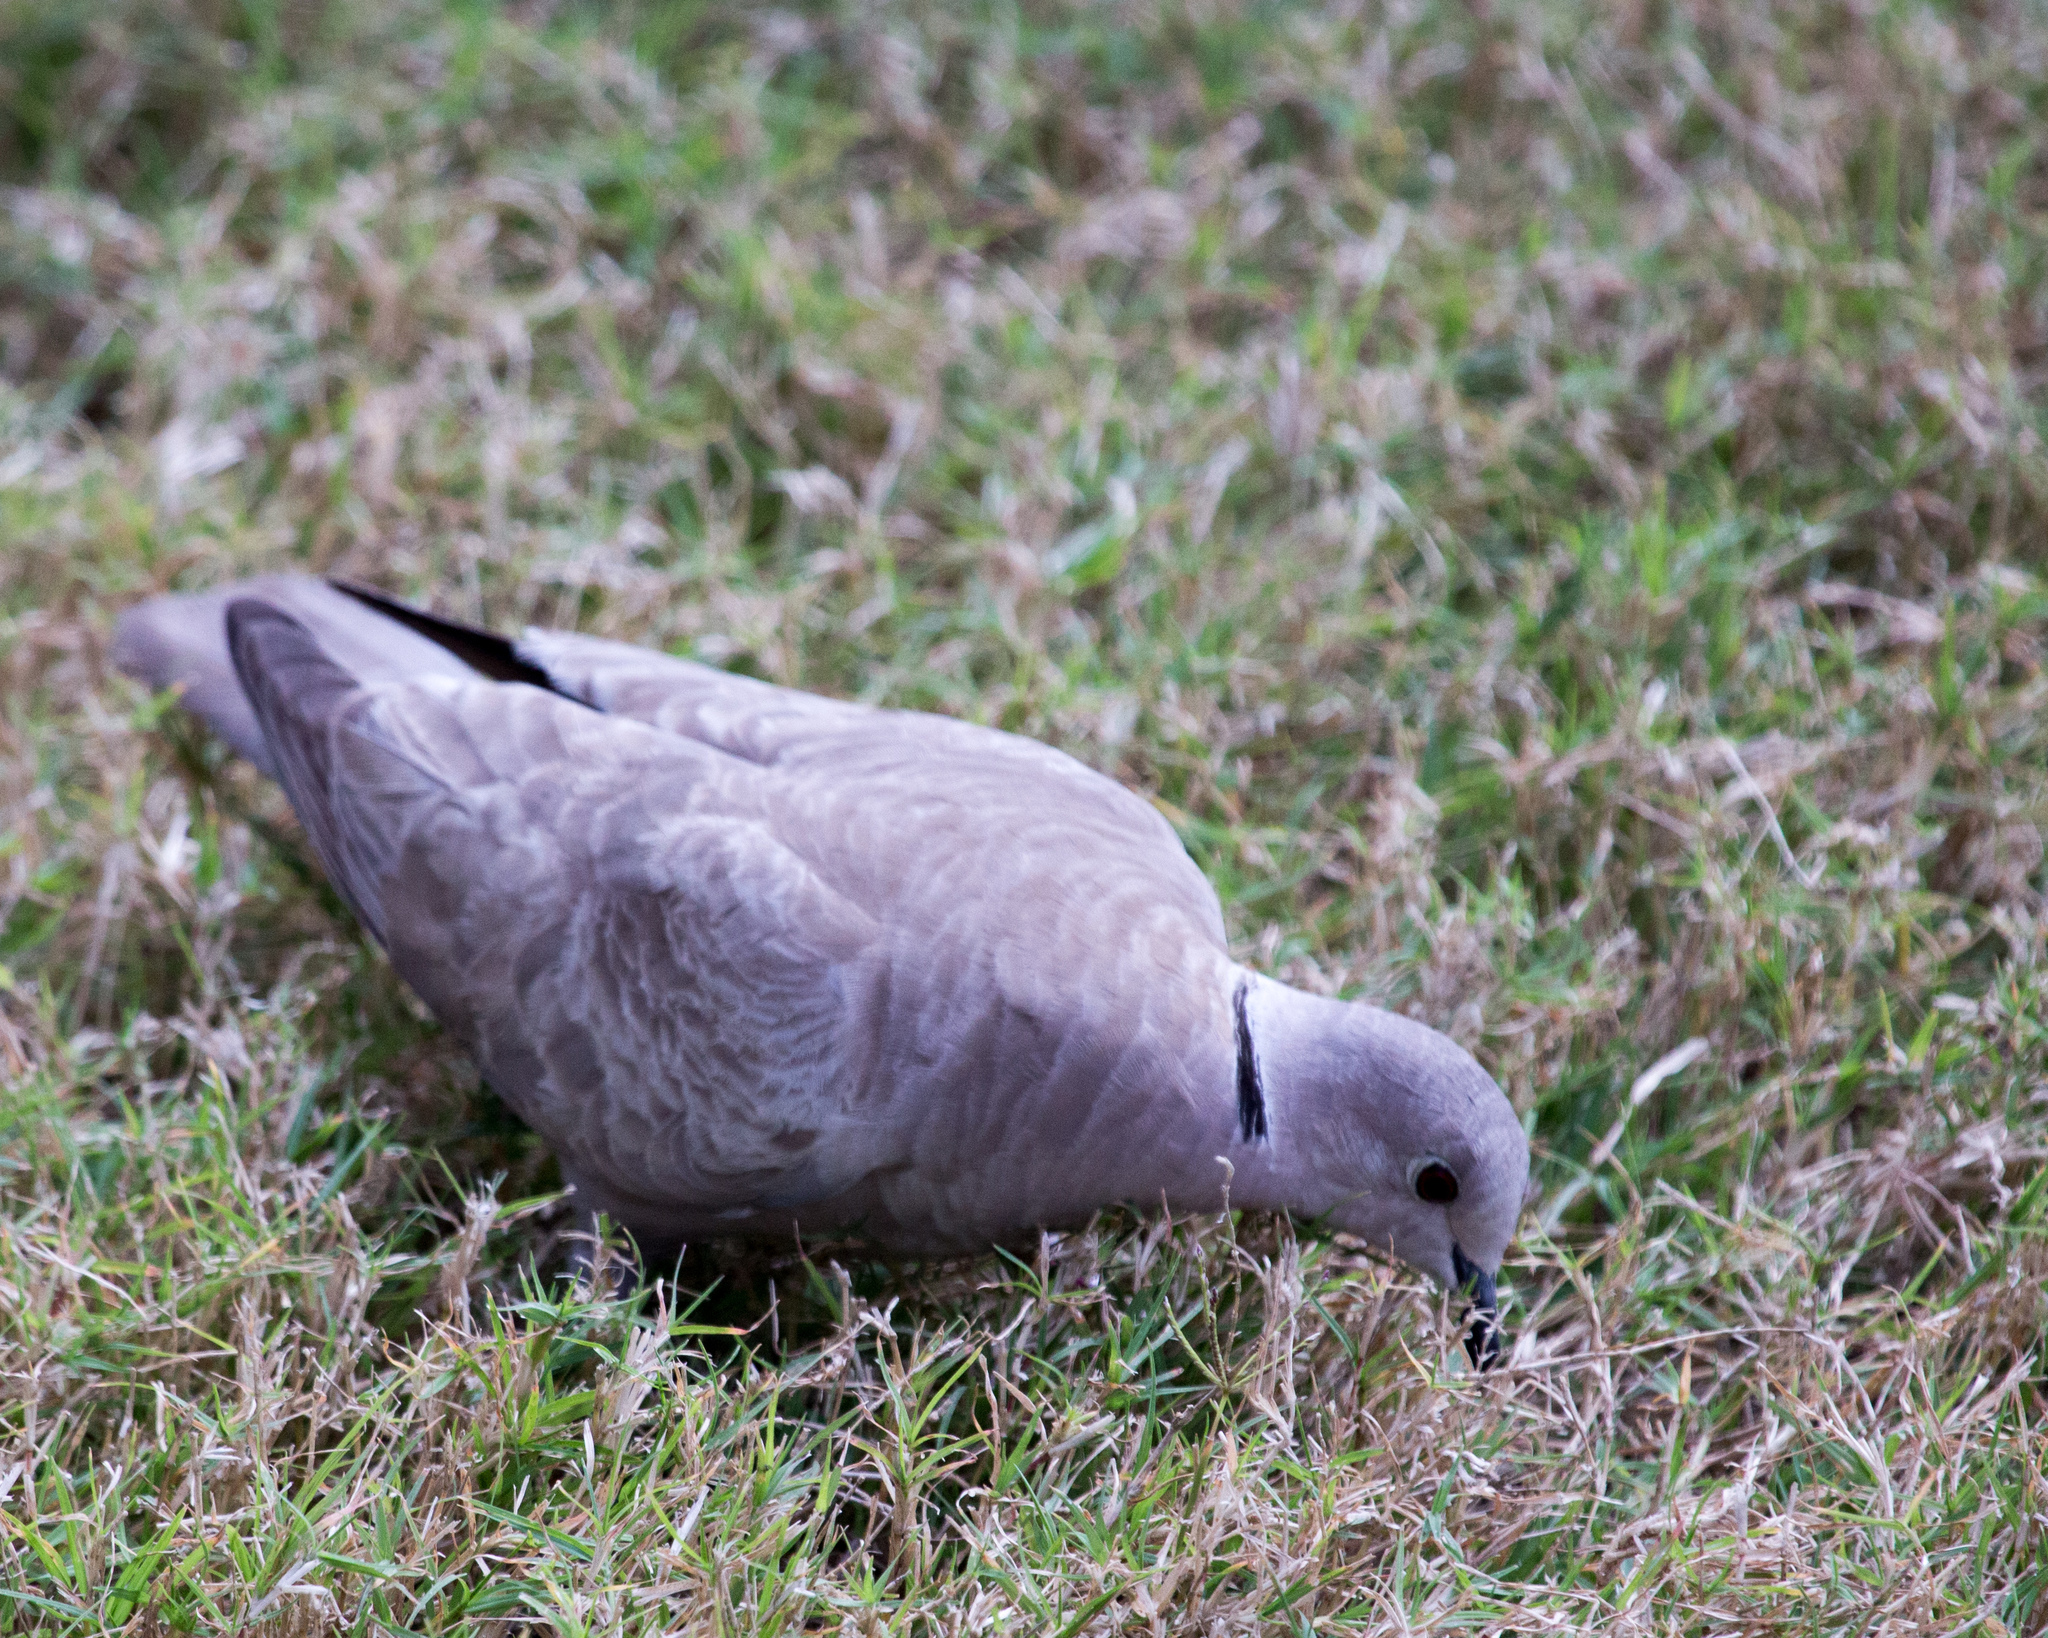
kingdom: Animalia
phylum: Chordata
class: Aves
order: Columbiformes
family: Columbidae
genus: Streptopelia
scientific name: Streptopelia decaocto
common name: Eurasian collared dove
